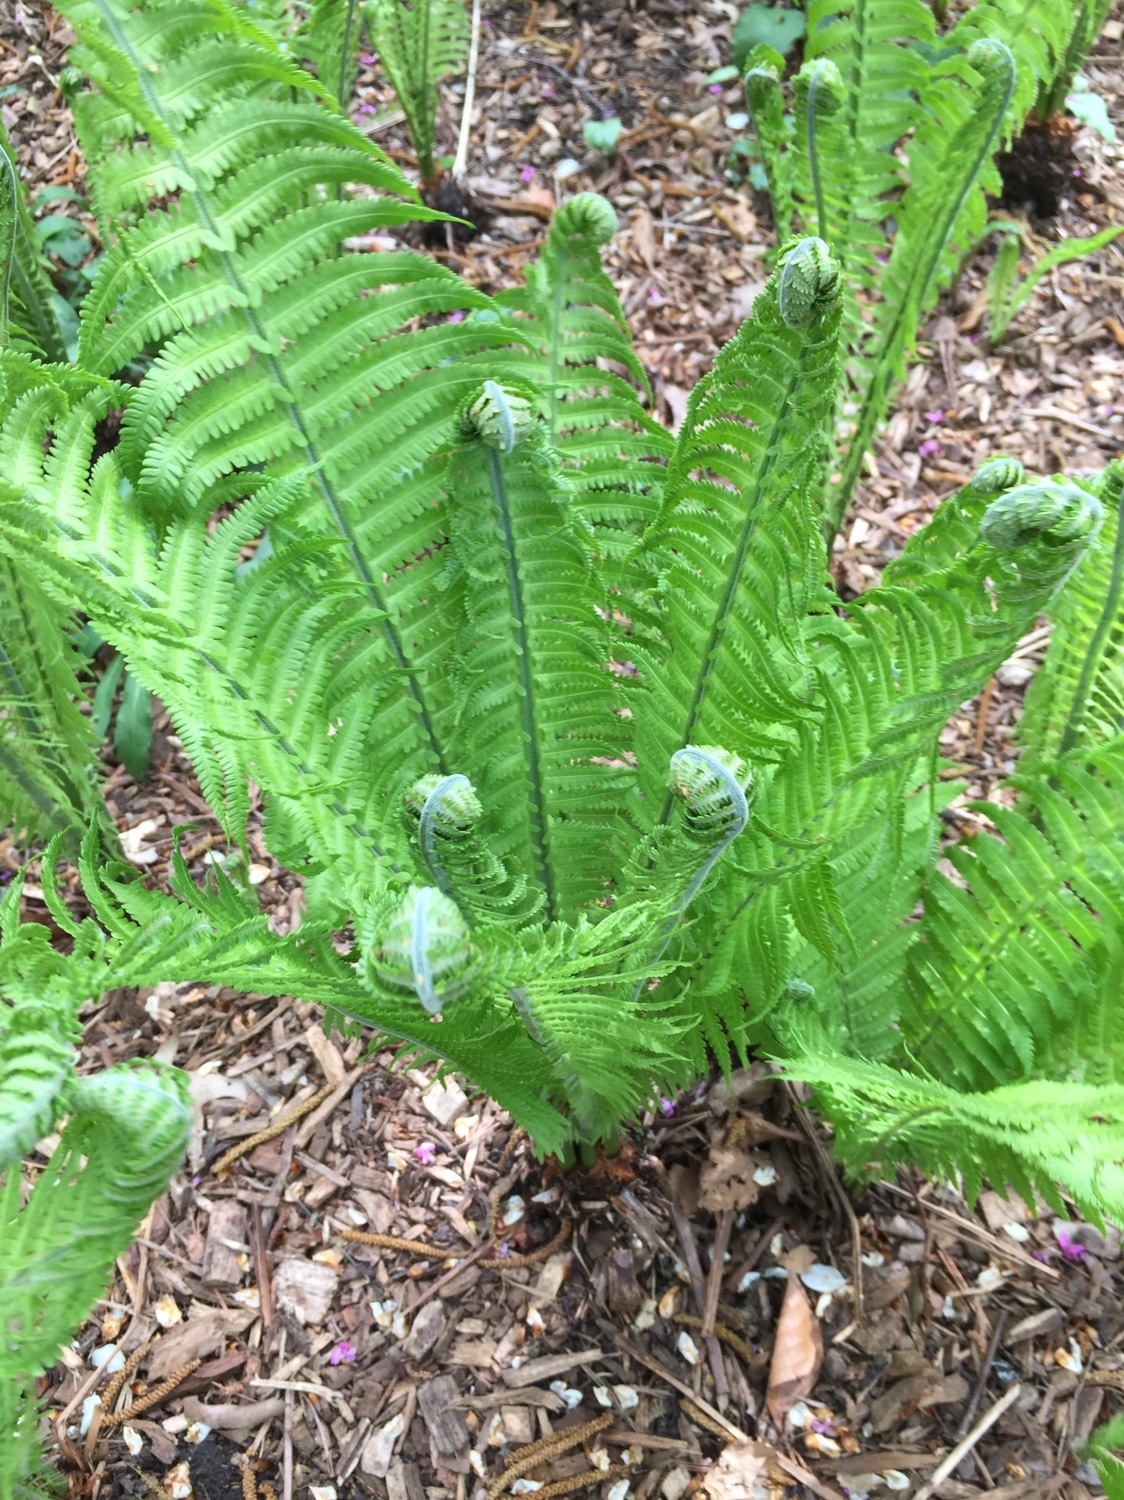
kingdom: Plantae
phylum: Tracheophyta
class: Polypodiopsida
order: Polypodiales
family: Onocleaceae
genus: Matteuccia
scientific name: Matteuccia struthiopteris
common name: Ostrich fern
